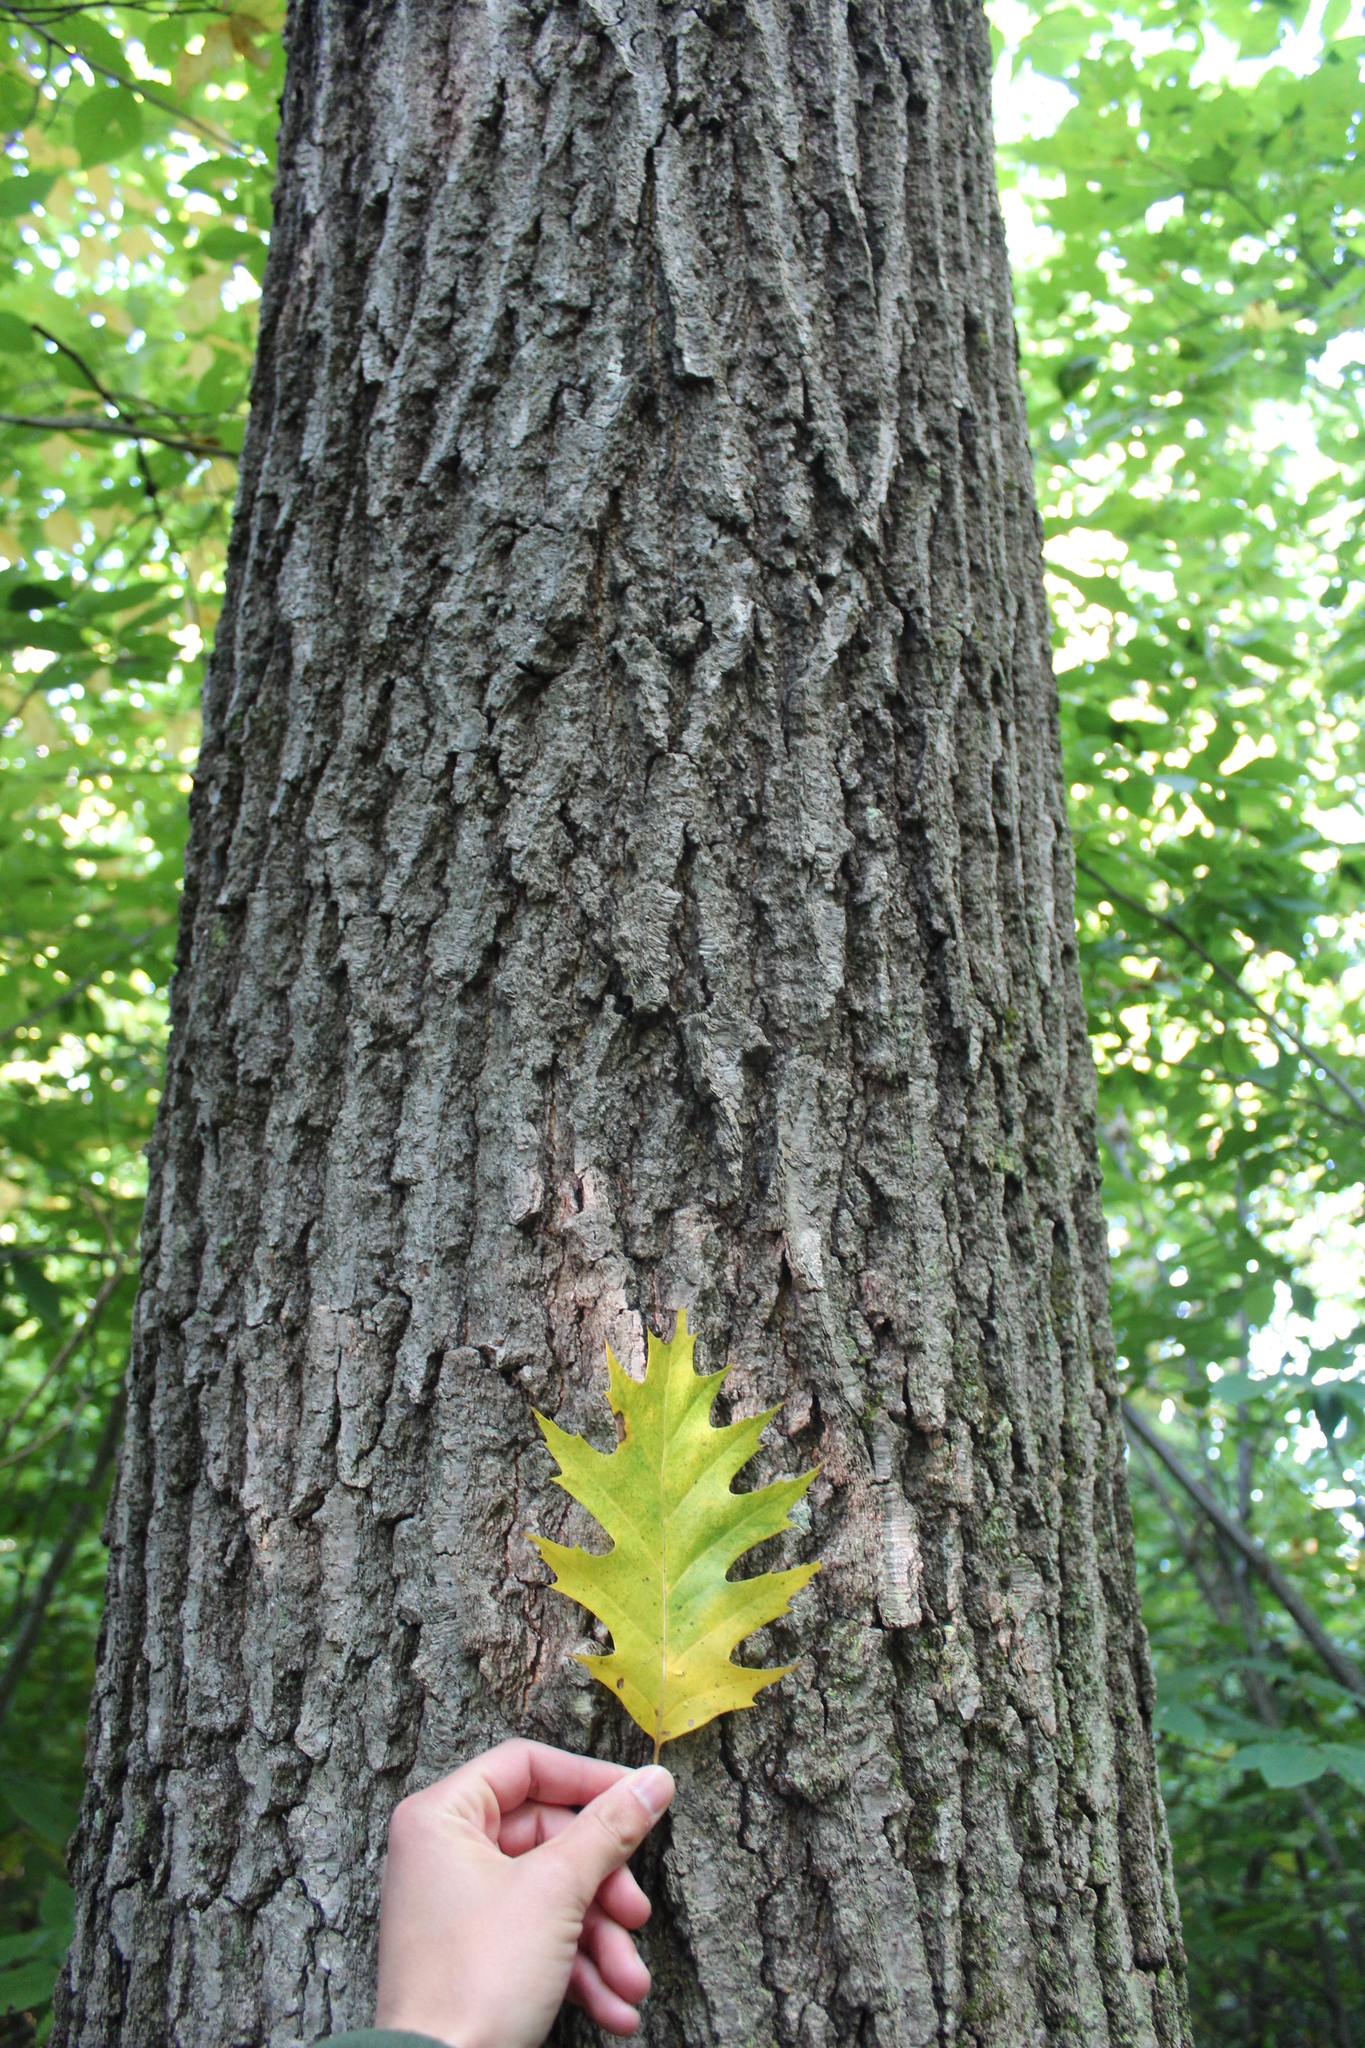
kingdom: Plantae
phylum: Tracheophyta
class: Magnoliopsida
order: Fagales
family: Fagaceae
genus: Quercus
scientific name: Quercus rubra
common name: Red oak
